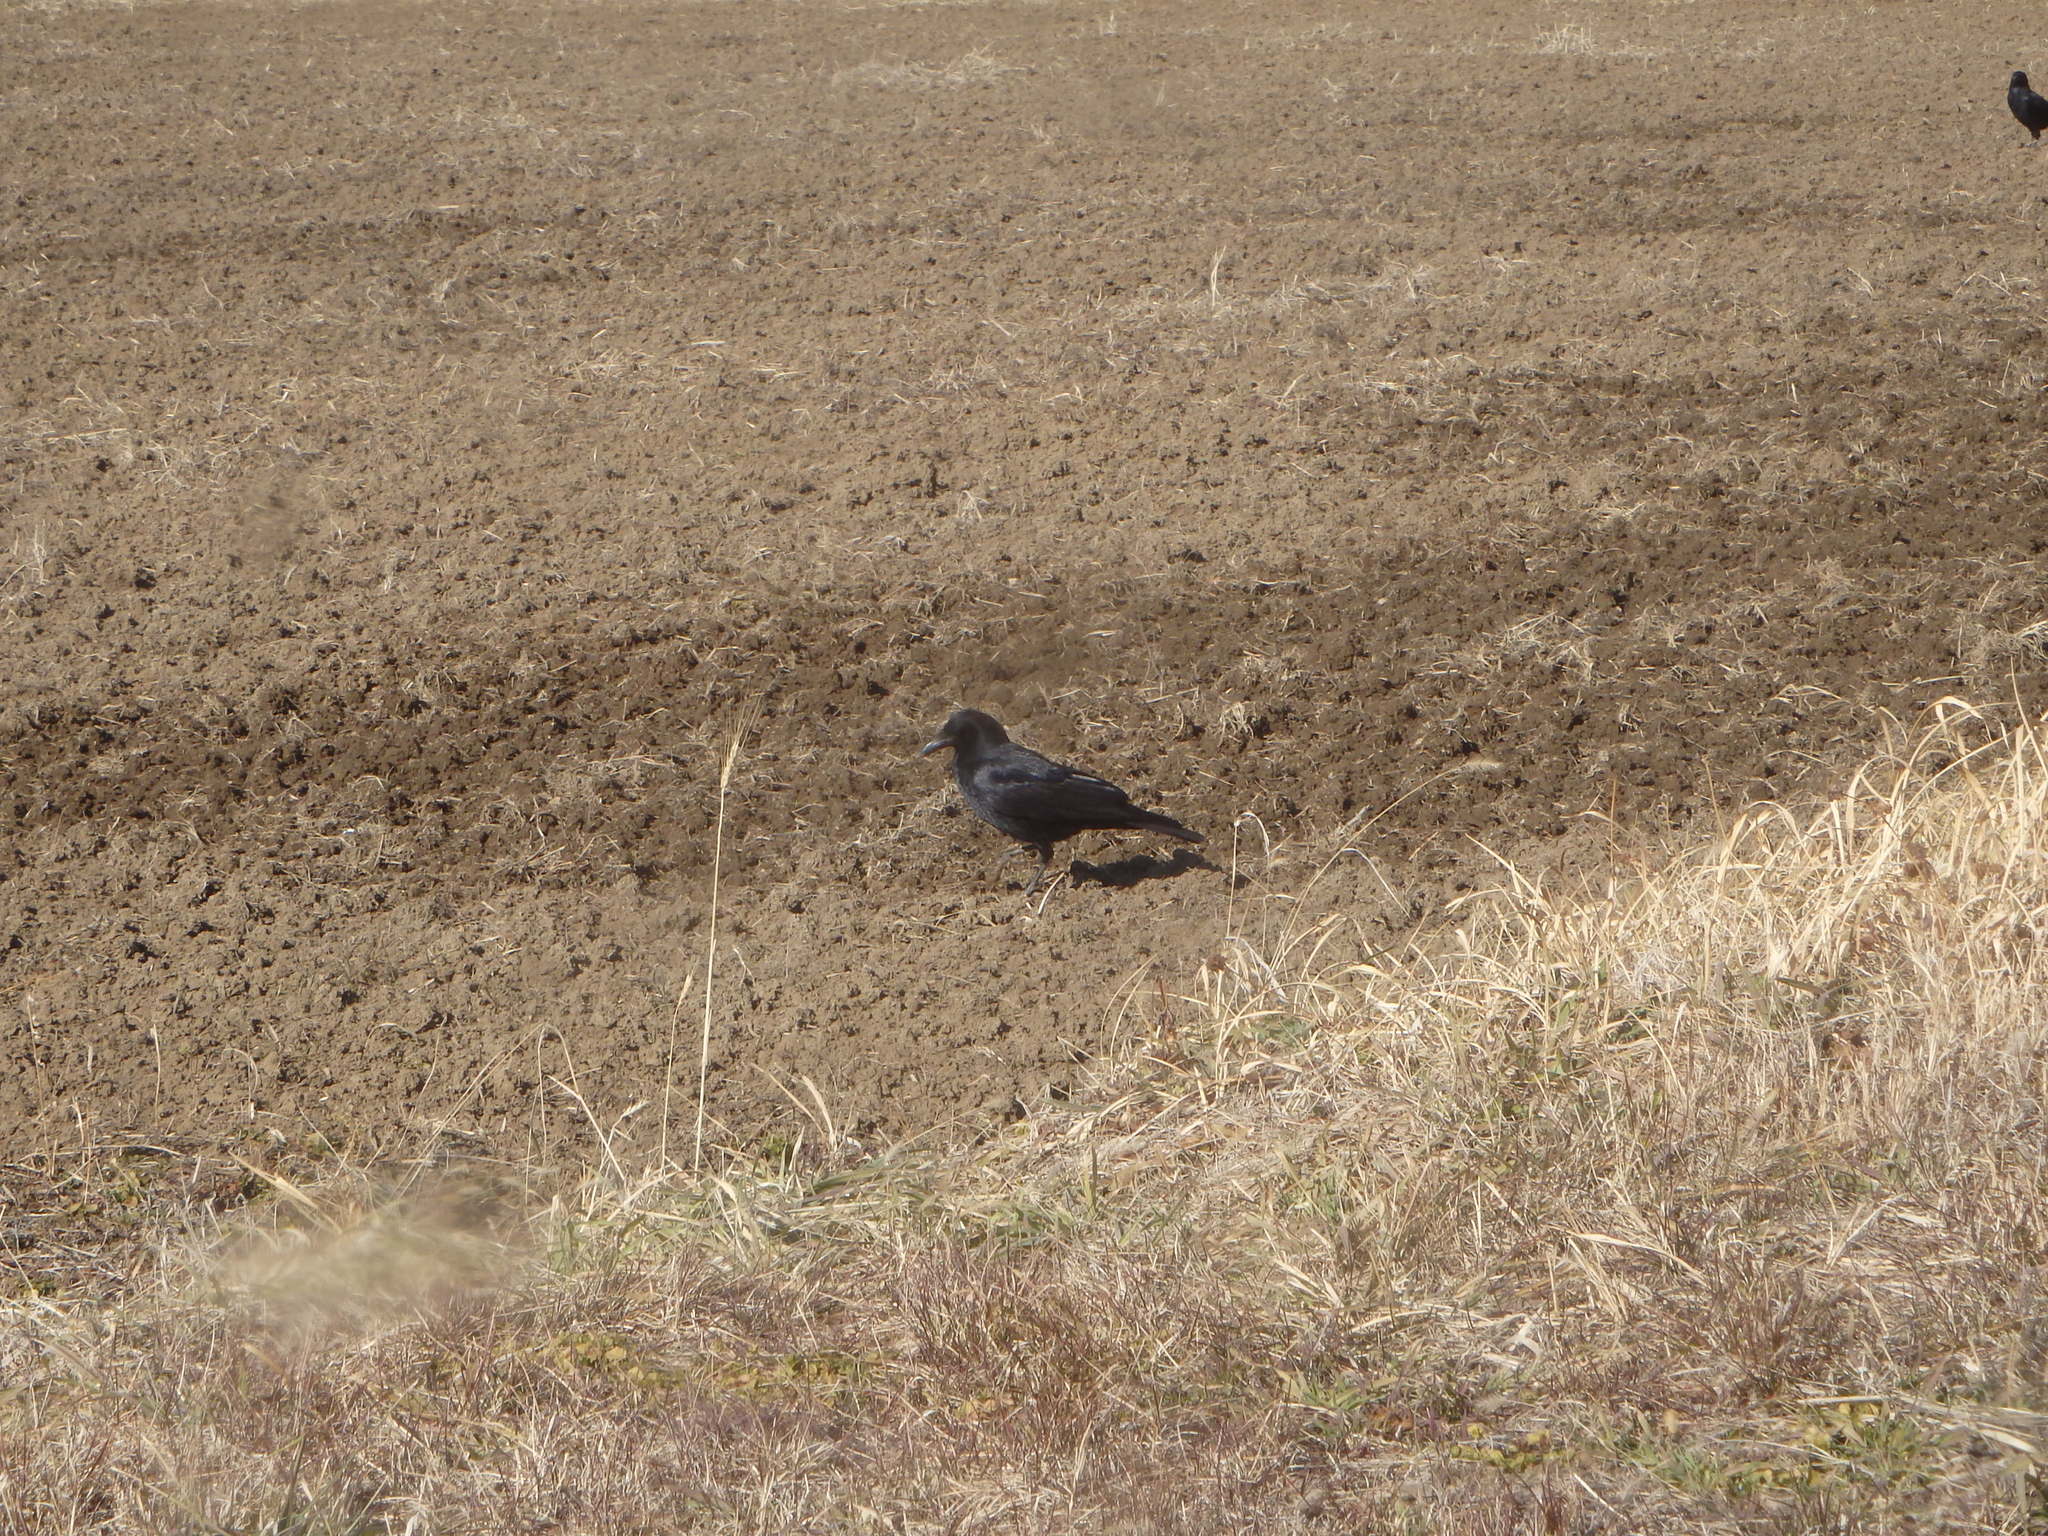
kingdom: Animalia
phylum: Chordata
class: Aves
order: Passeriformes
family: Corvidae
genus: Corvus
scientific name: Corvus corone
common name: Carrion crow
